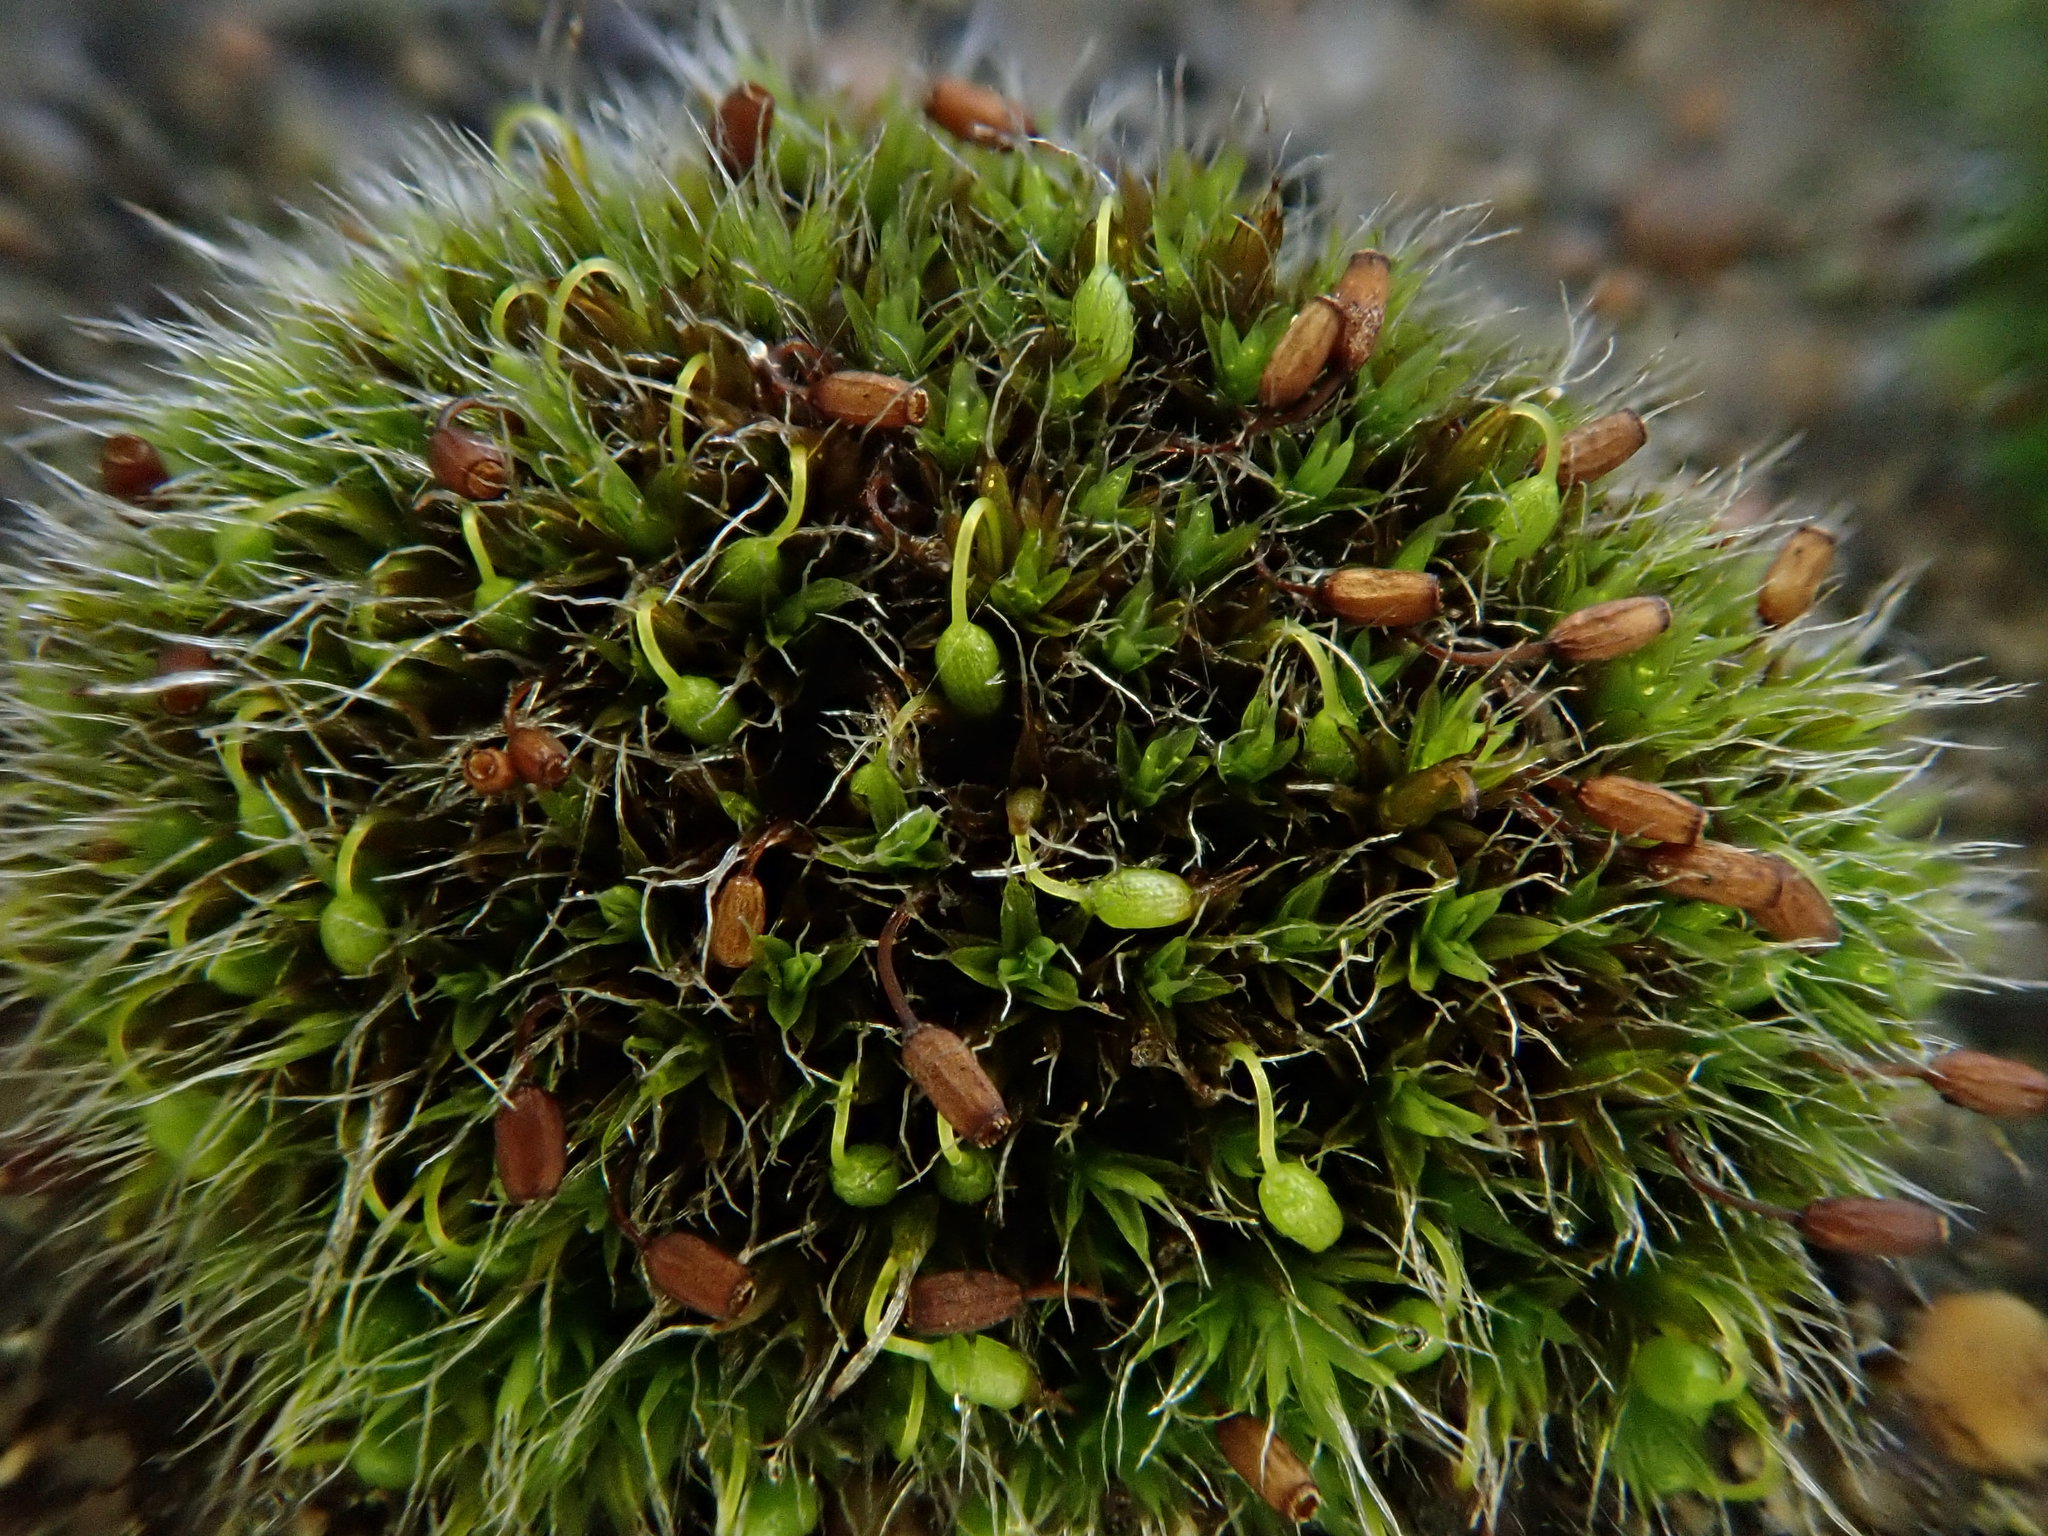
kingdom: Plantae
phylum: Bryophyta
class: Bryopsida
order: Grimmiales
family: Grimmiaceae
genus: Grimmia
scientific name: Grimmia pulvinata
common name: Grey-cushioned grimmia
